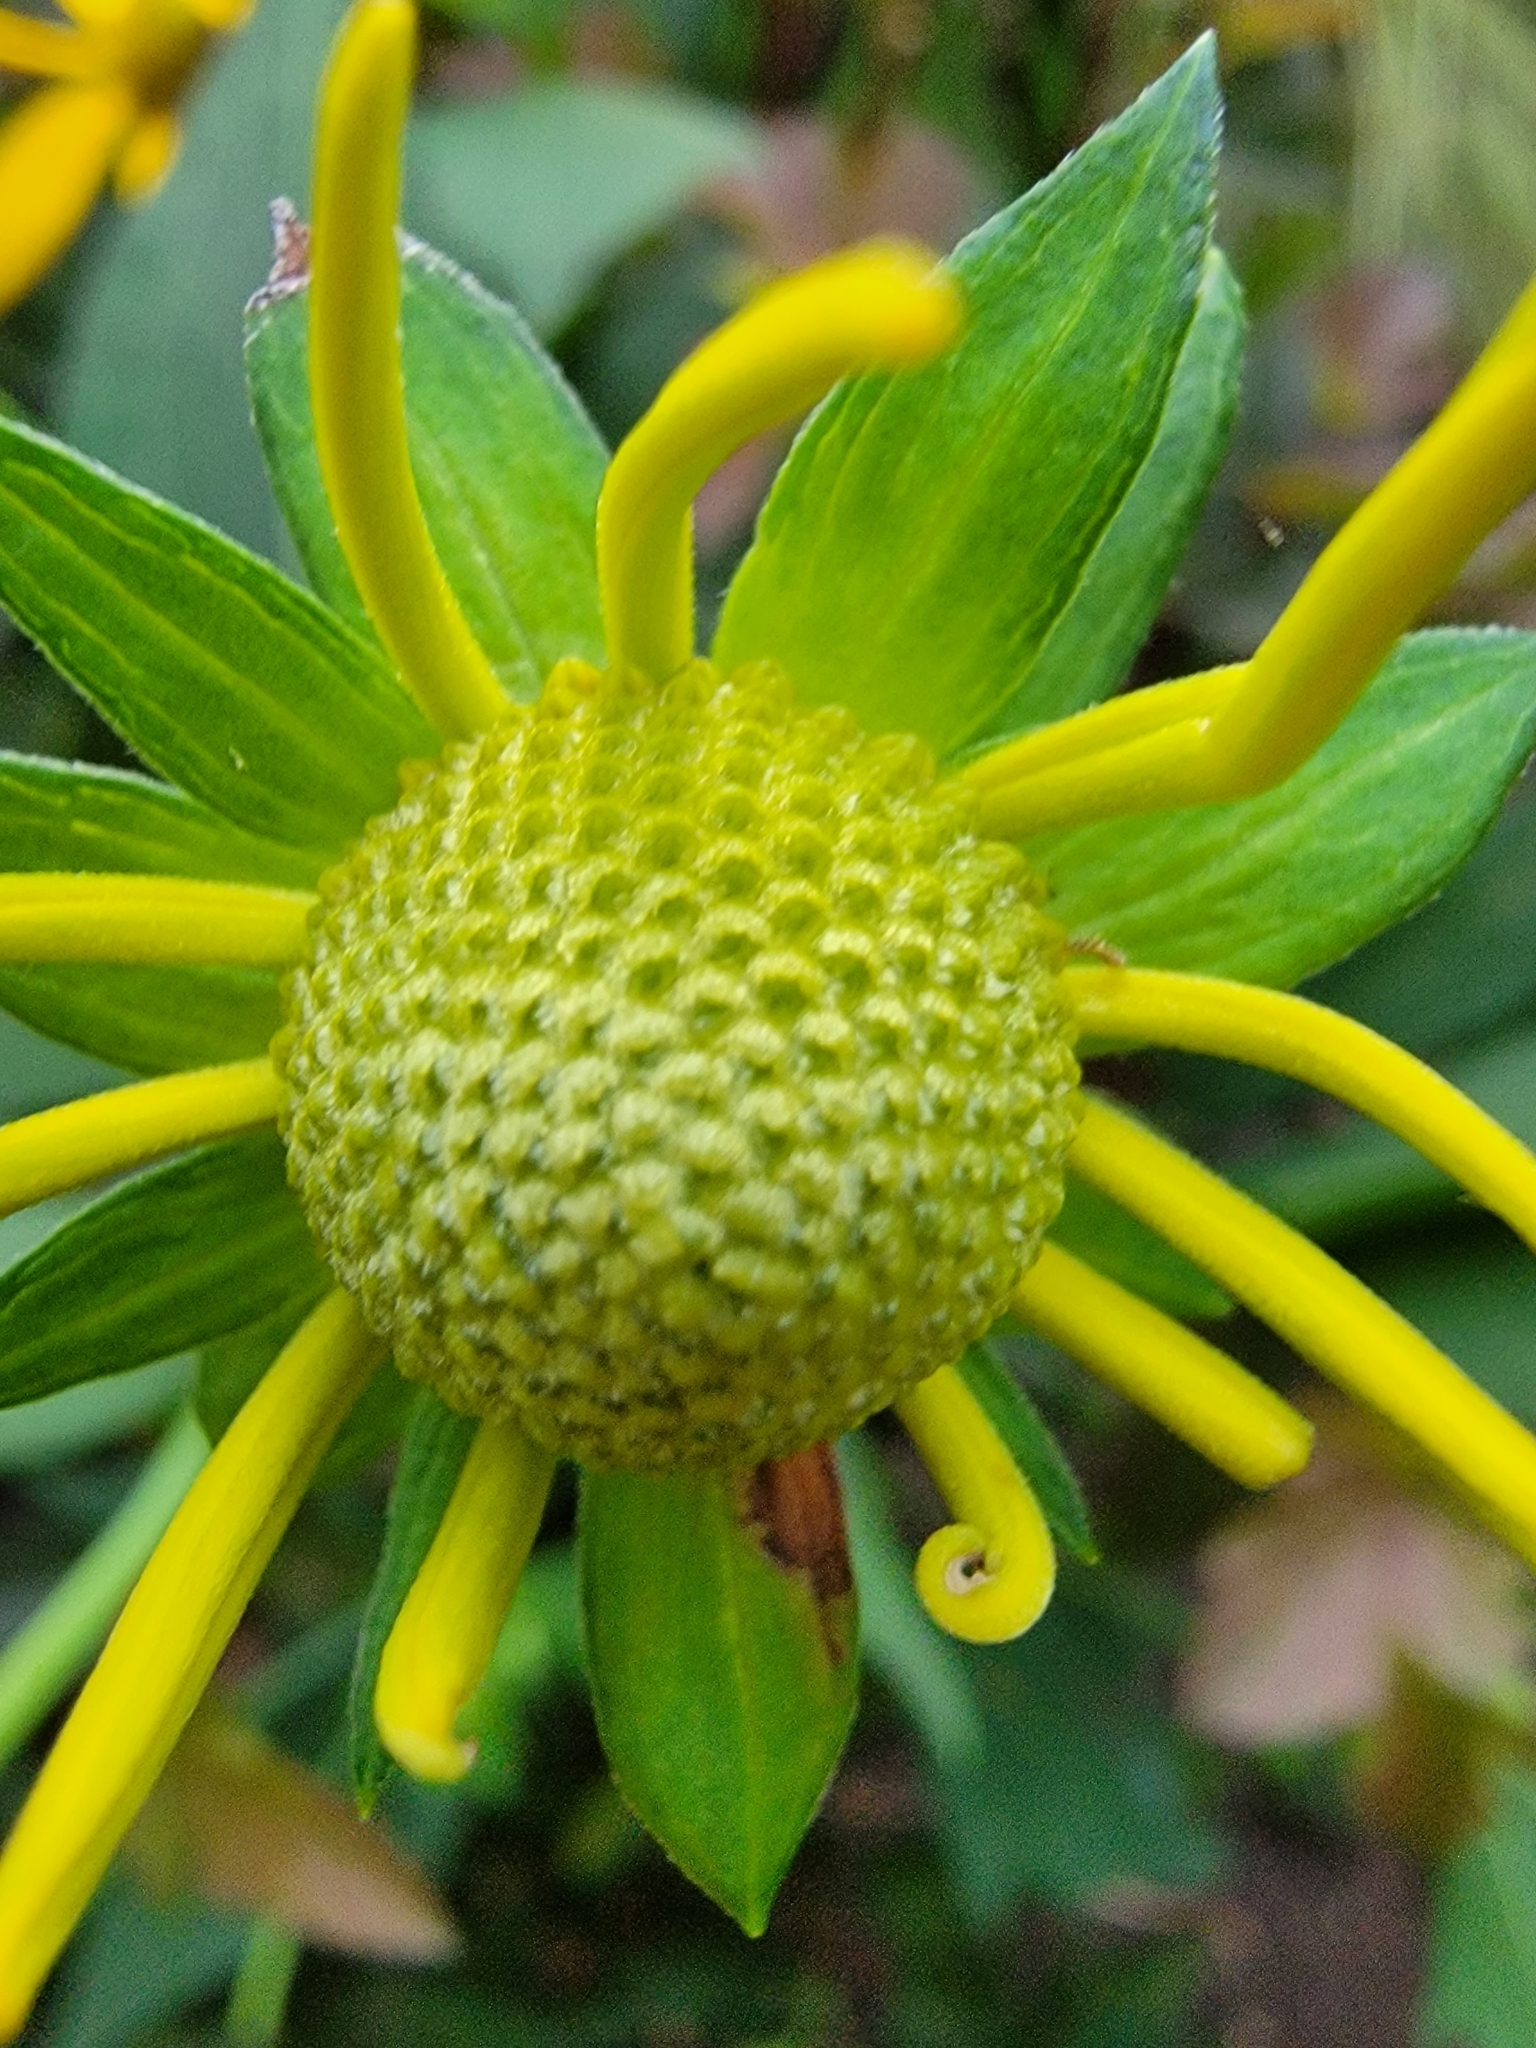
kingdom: Plantae
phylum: Tracheophyta
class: Magnoliopsida
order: Asterales
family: Asteraceae
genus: Rudbeckia
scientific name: Rudbeckia laciniata
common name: Coneflower
